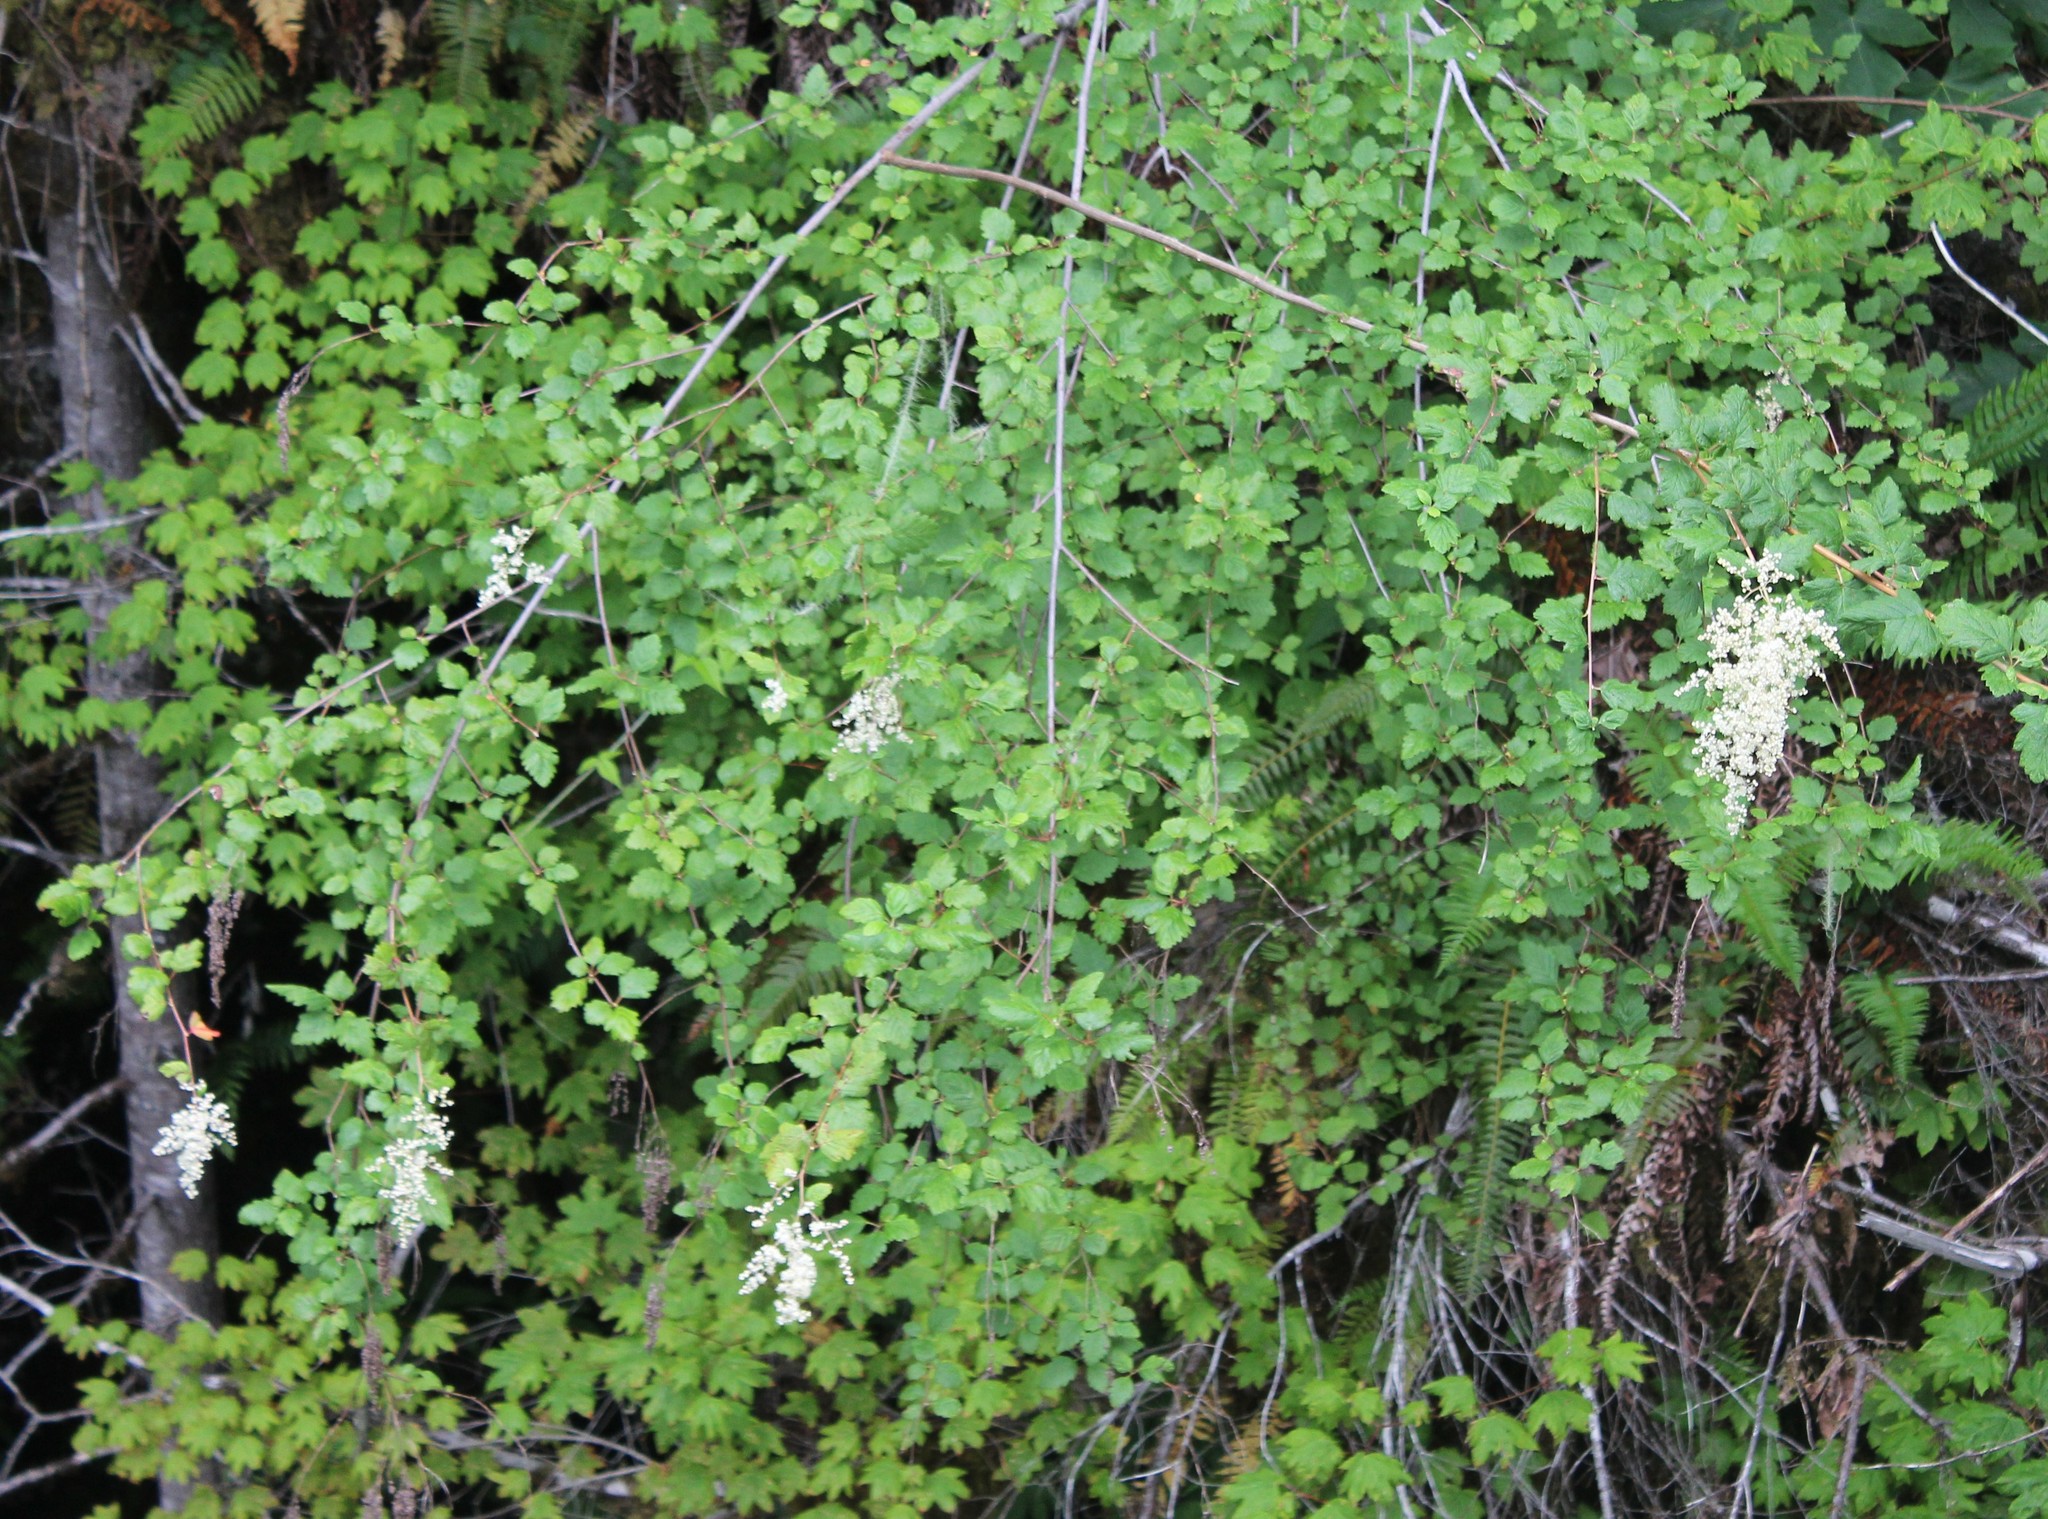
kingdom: Plantae
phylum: Tracheophyta
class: Magnoliopsida
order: Rosales
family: Rosaceae
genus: Holodiscus
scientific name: Holodiscus discolor
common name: Oceanspray
